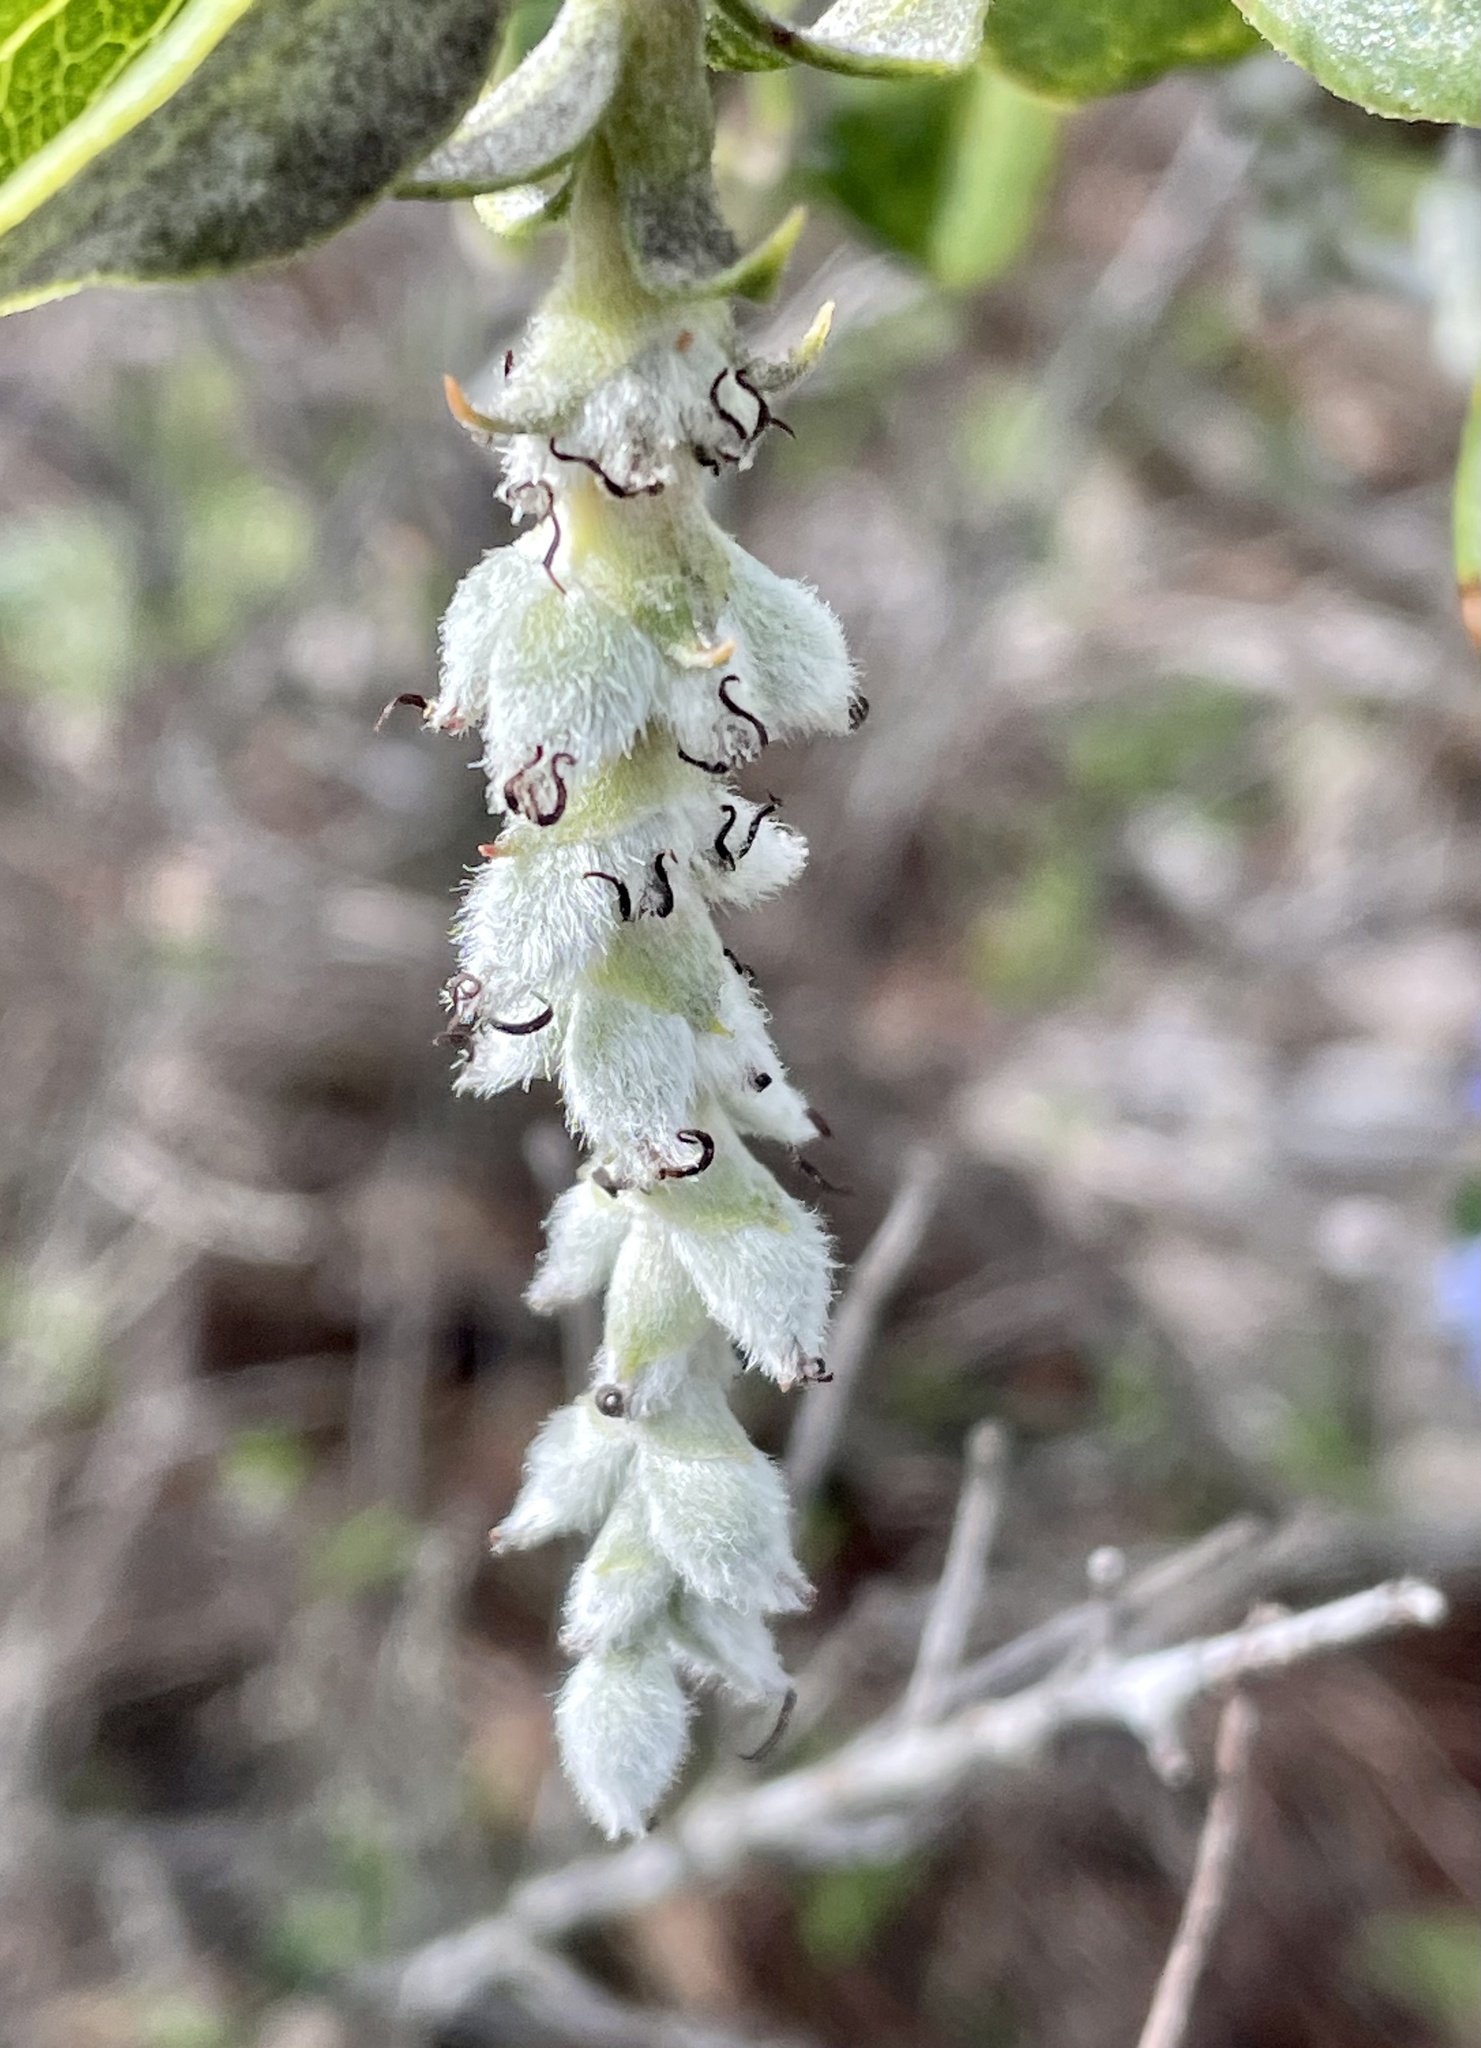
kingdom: Plantae
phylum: Tracheophyta
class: Magnoliopsida
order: Garryales
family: Garryaceae
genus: Garrya
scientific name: Garrya elliptica
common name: Silk-tassel
